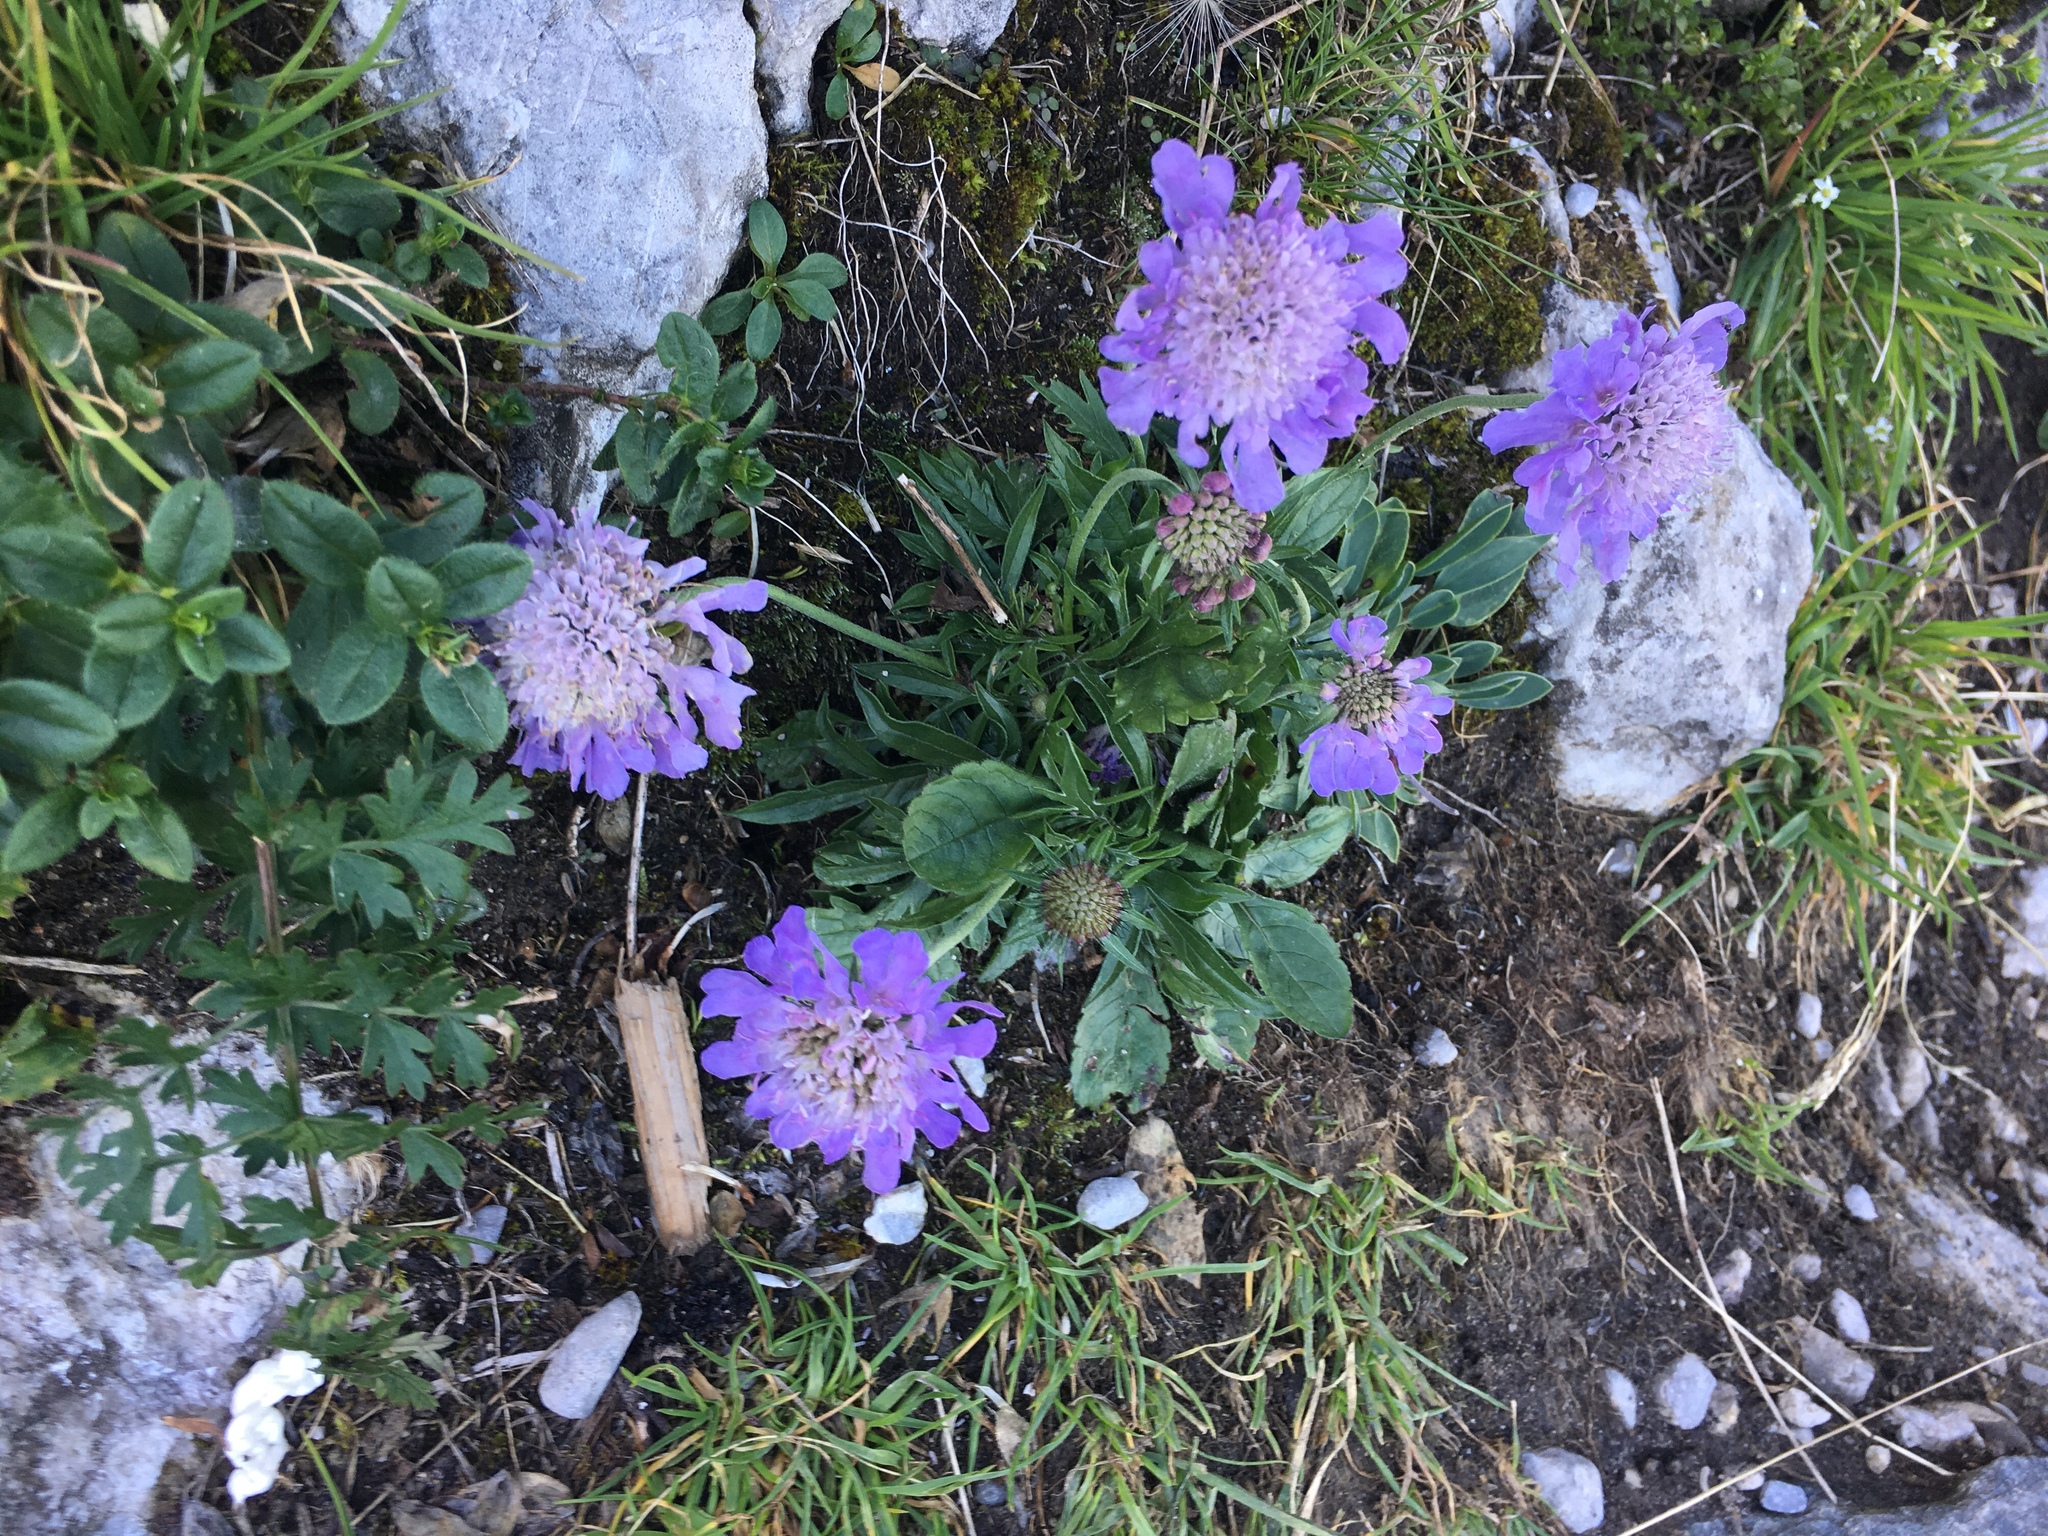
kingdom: Plantae
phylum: Tracheophyta
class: Magnoliopsida
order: Dipsacales
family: Caprifoliaceae
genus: Scabiosa
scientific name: Scabiosa lucida
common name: Shining scabious
